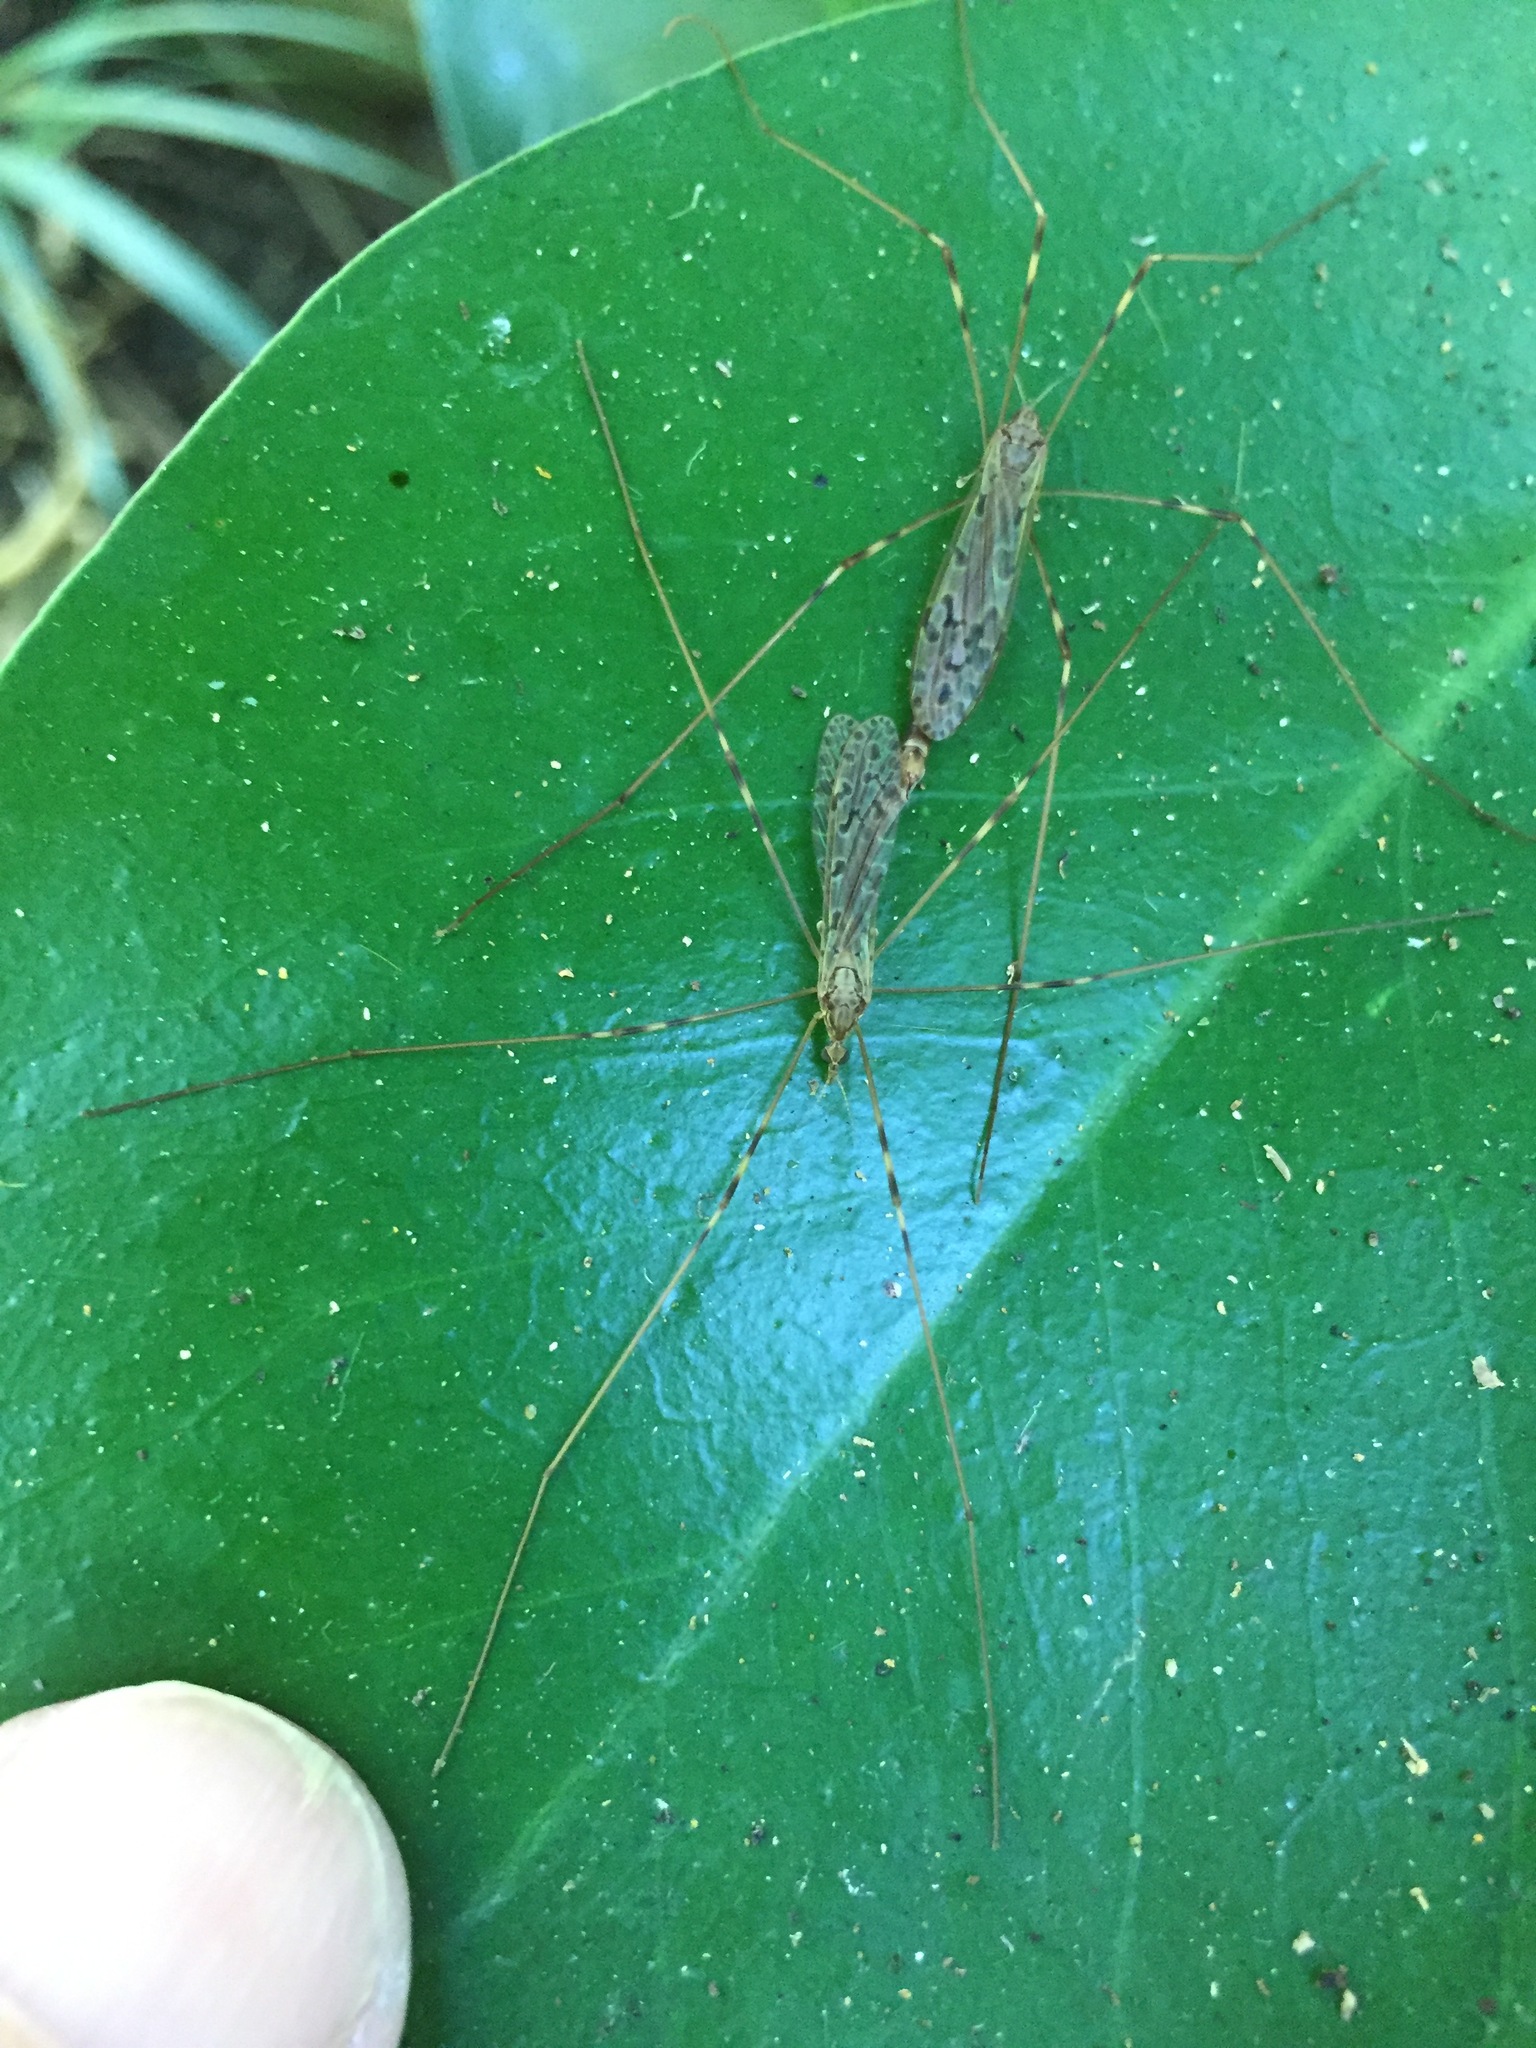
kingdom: Animalia
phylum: Arthropoda
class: Insecta
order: Diptera
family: Limoniidae
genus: Austrolimnophila
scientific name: Austrolimnophila crassipes
